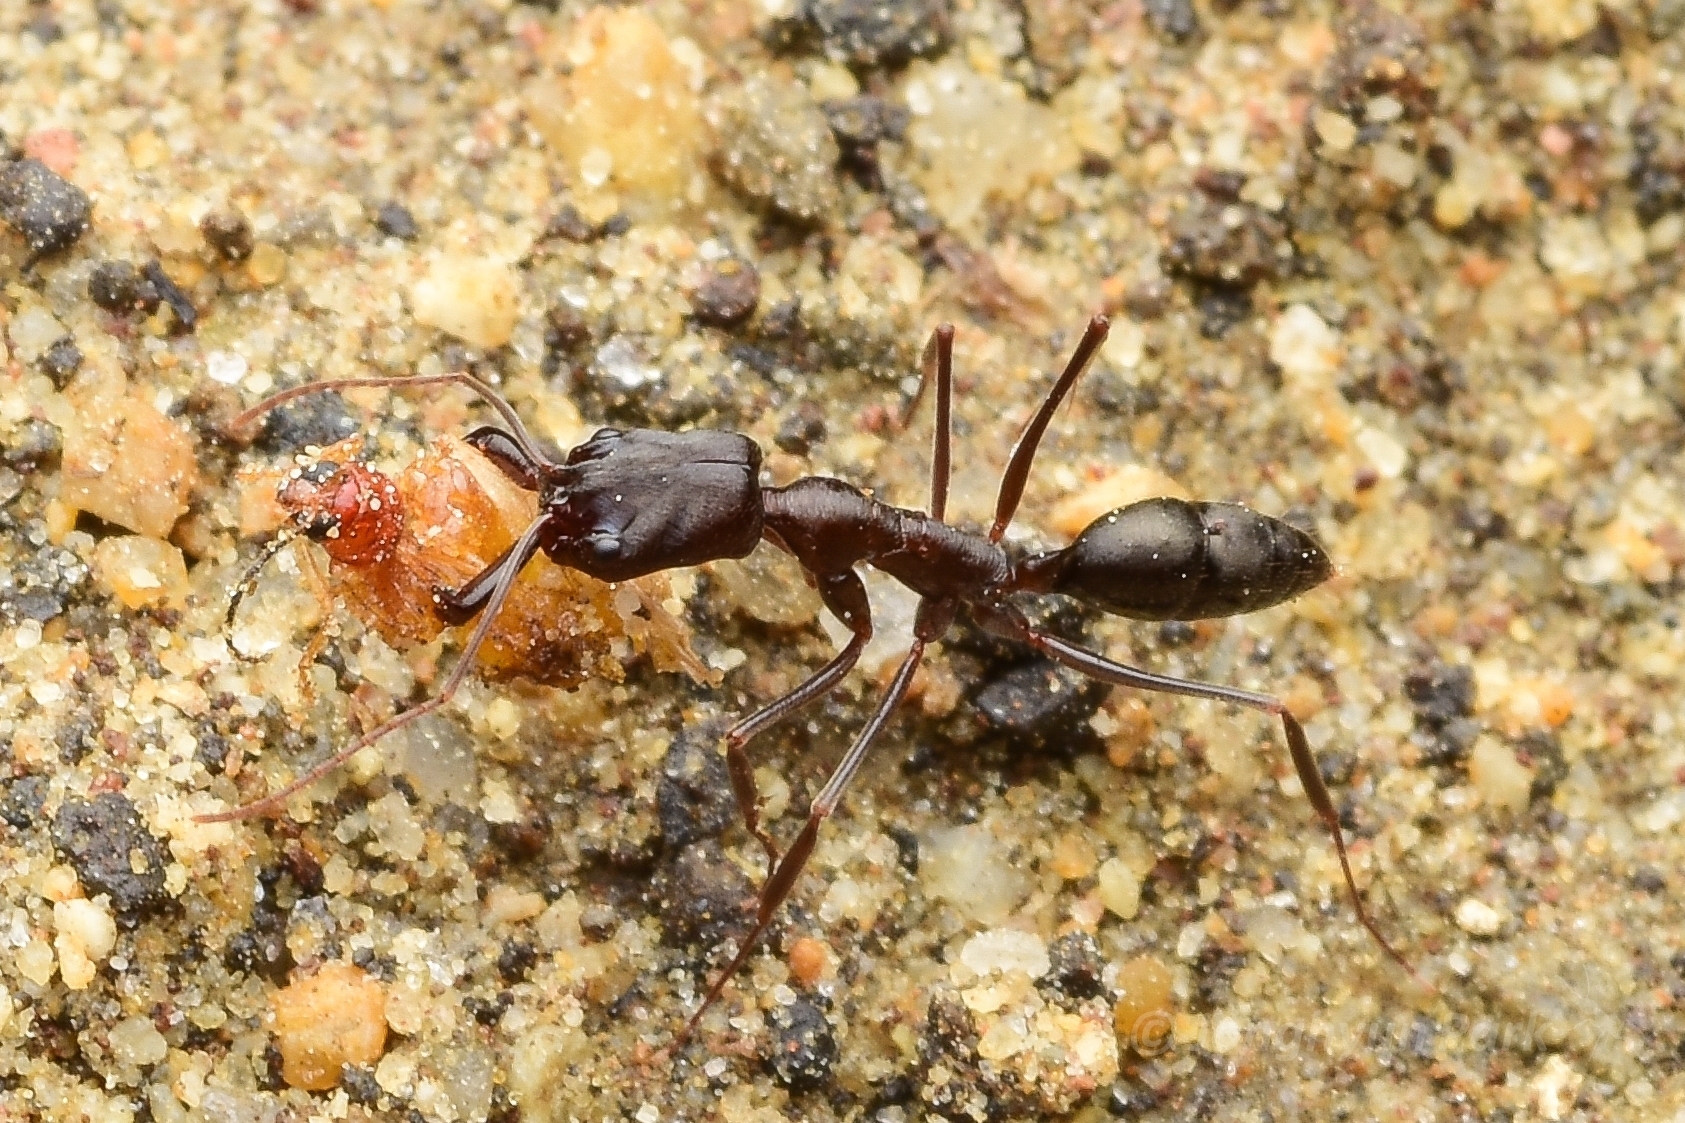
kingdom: Animalia
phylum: Arthropoda
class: Insecta
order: Hymenoptera
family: Formicidae
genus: Odontomachus
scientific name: Odontomachus turneri
